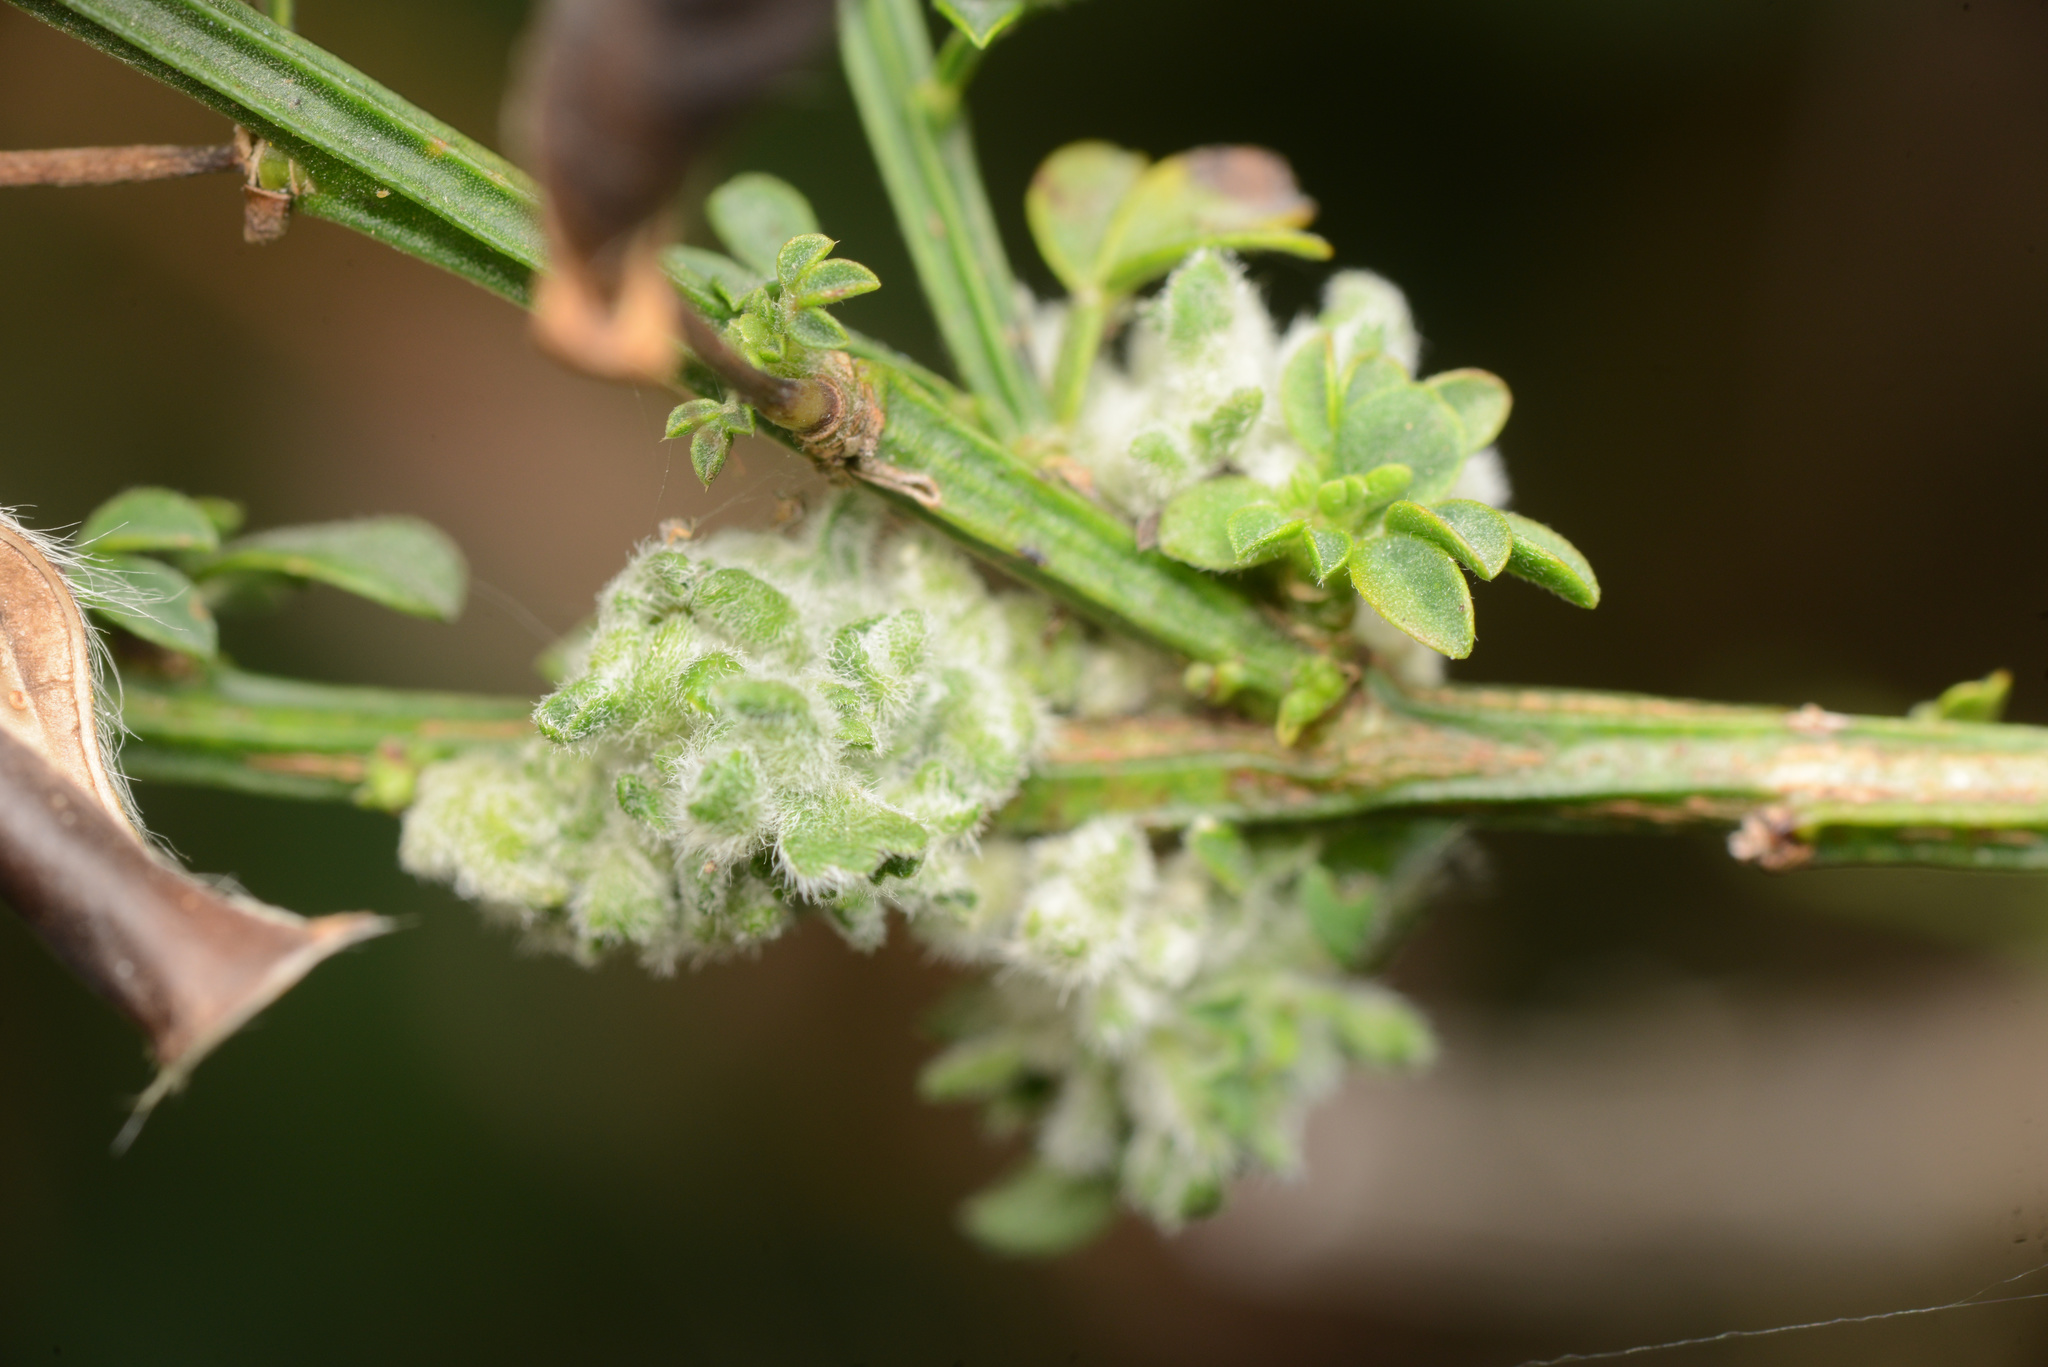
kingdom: Animalia
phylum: Arthropoda
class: Arachnida
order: Trombidiformes
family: Eriophyidae
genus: Aceria
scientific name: Aceria genistae
